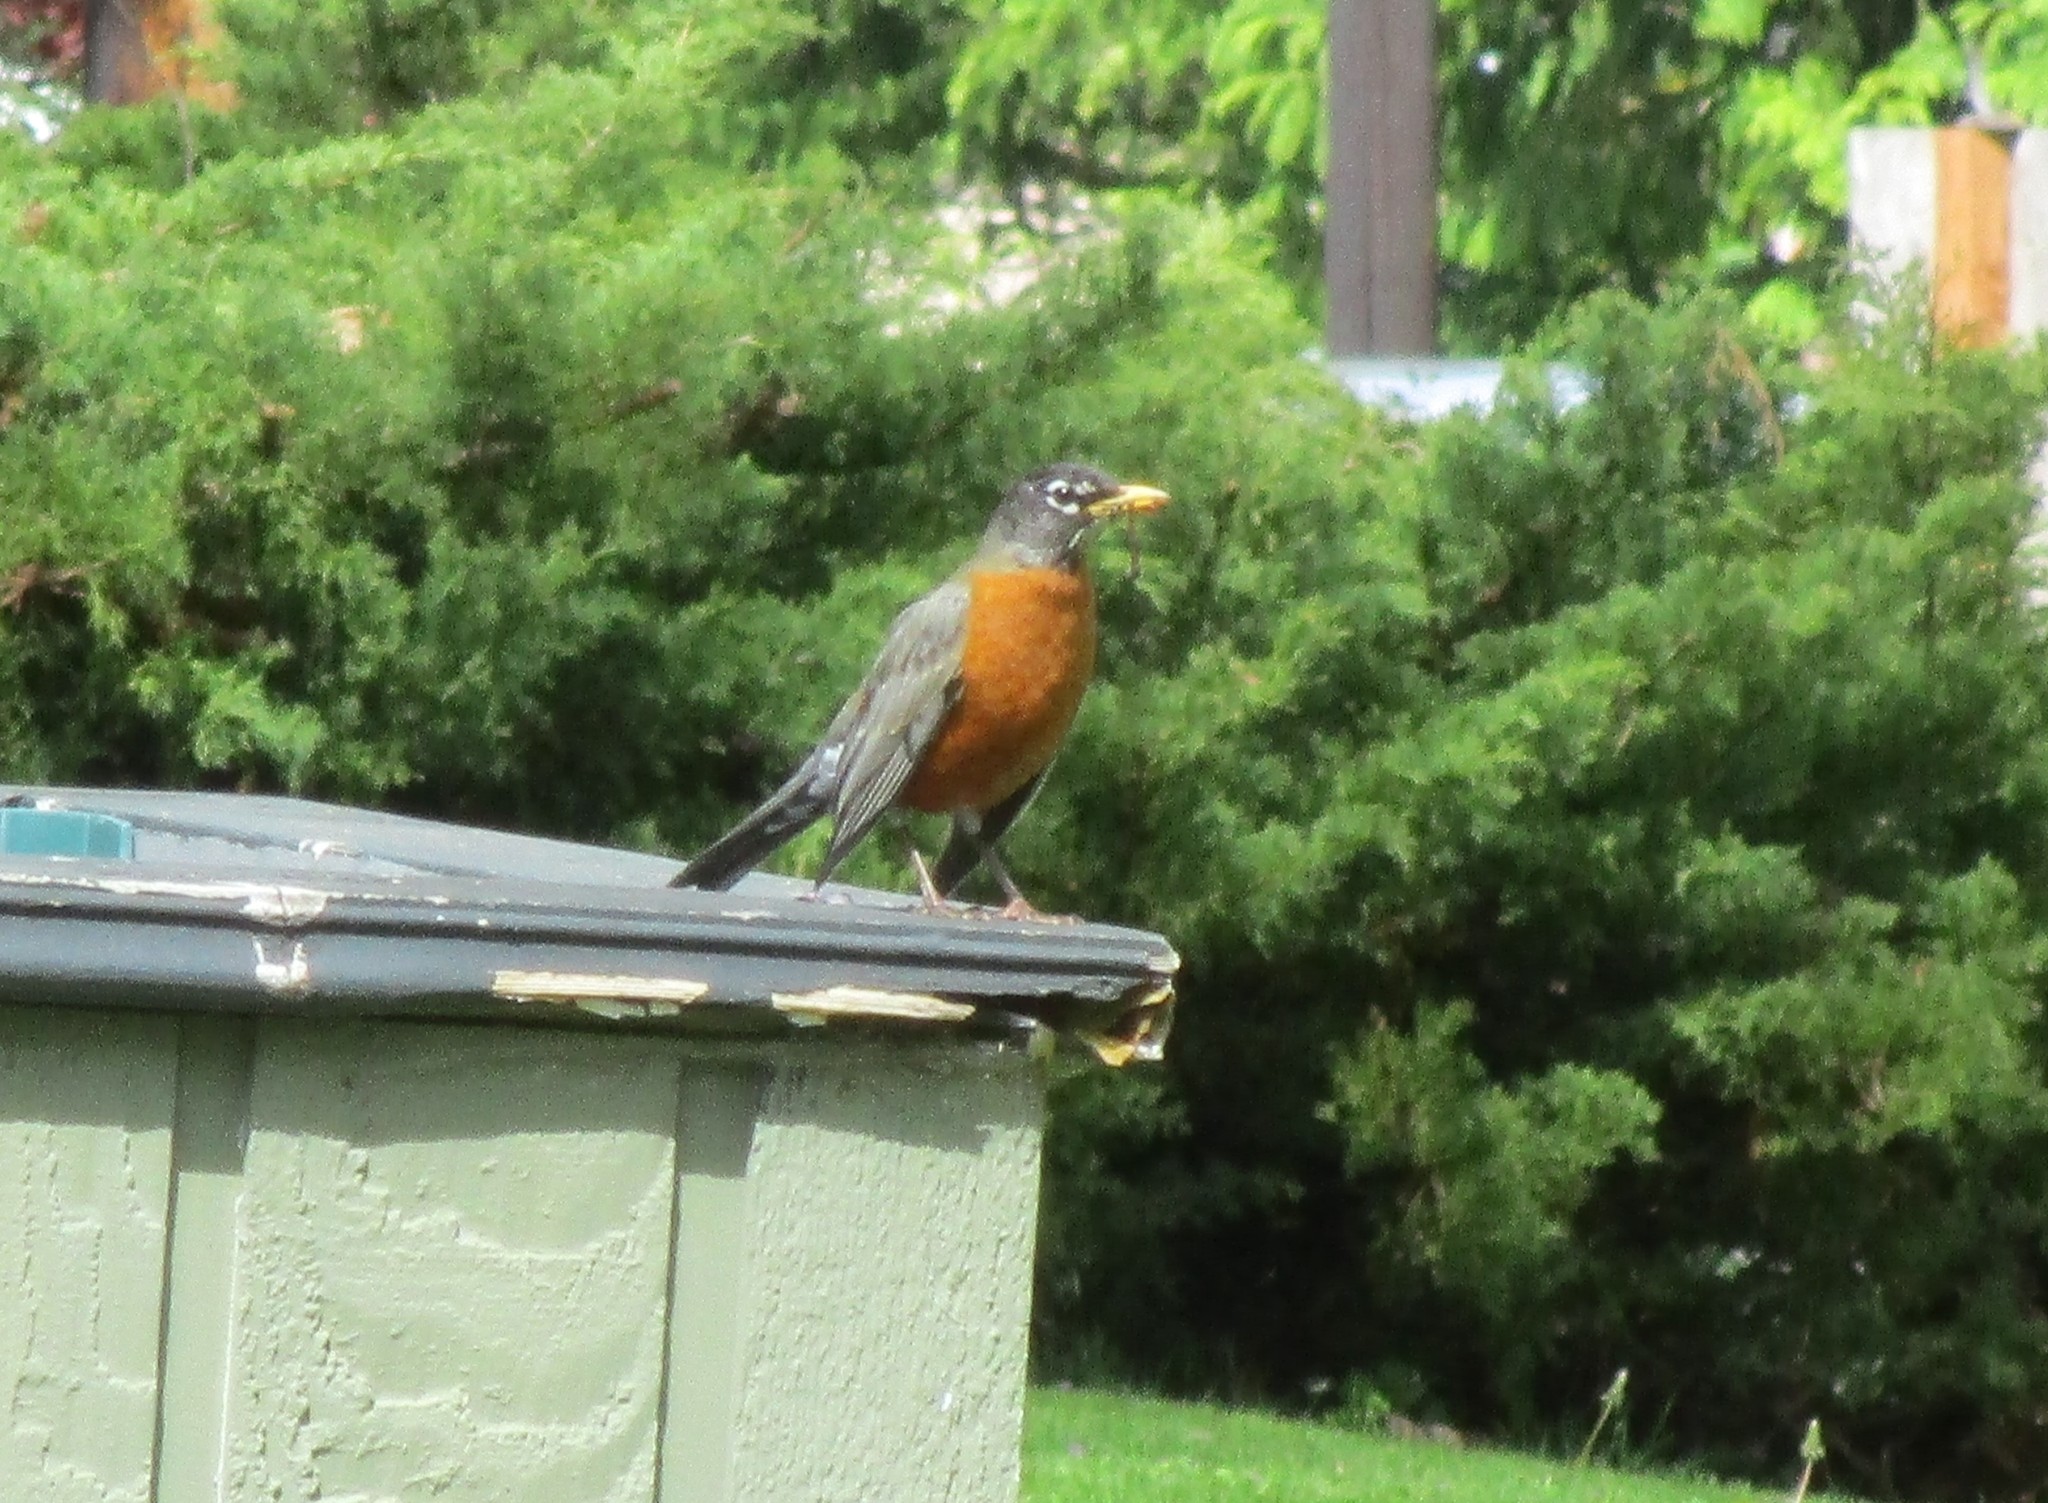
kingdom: Animalia
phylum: Chordata
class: Aves
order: Passeriformes
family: Turdidae
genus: Turdus
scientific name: Turdus migratorius
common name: American robin
